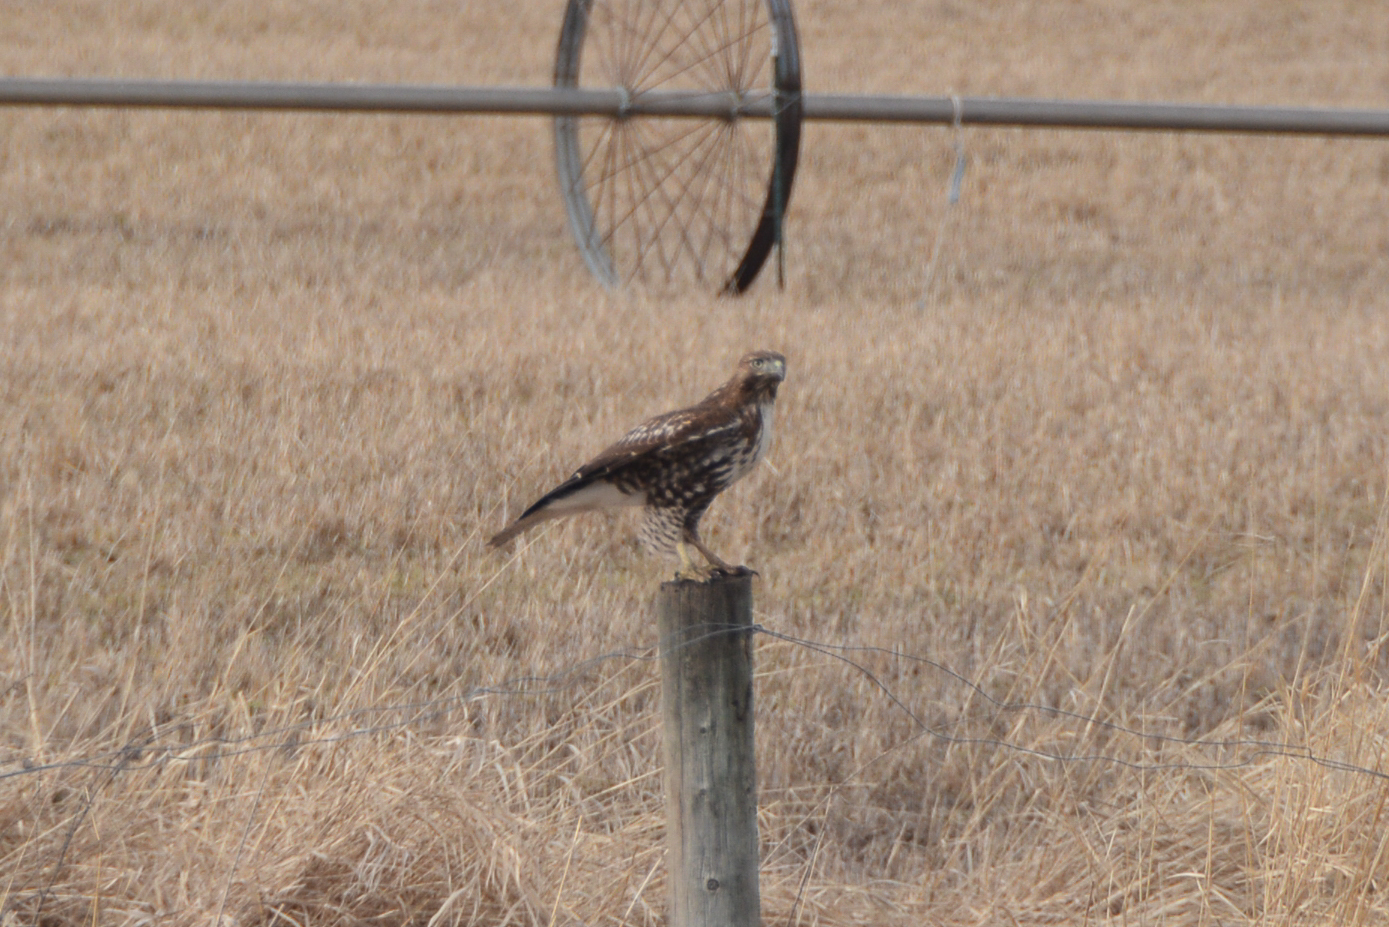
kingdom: Animalia
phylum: Chordata
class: Aves
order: Accipitriformes
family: Accipitridae
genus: Buteo
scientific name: Buteo jamaicensis
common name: Red-tailed hawk
